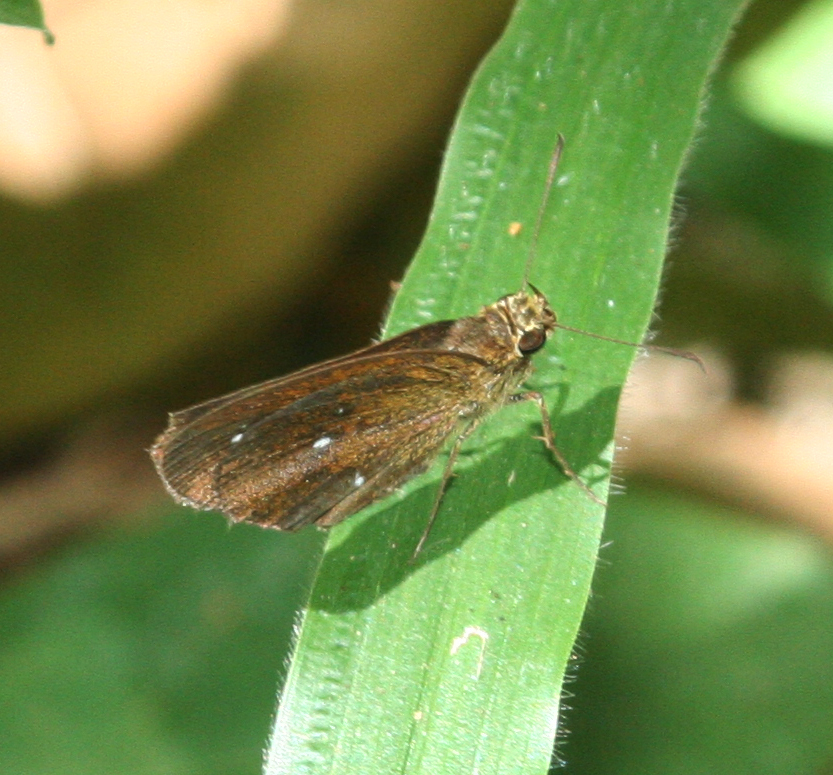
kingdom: Animalia
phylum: Arthropoda
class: Insecta
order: Lepidoptera
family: Hesperiidae
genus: Iambrix
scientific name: Iambrix salsala
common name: Chestnut bob
